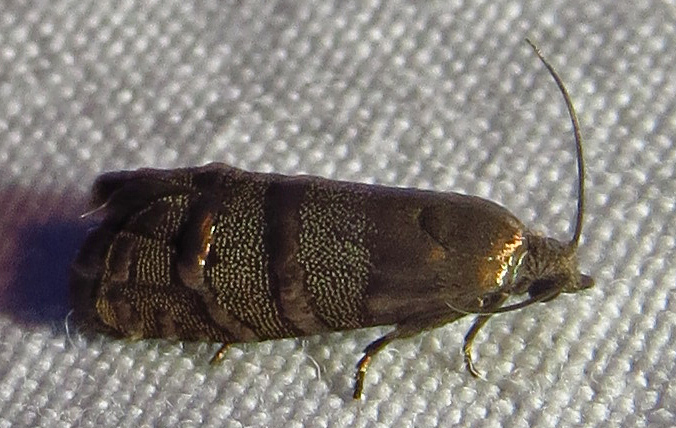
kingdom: Animalia
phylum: Arthropoda
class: Insecta
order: Lepidoptera
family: Tortricidae
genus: Cydia
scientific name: Cydia toreuta
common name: Eastern pine seedworm moth
